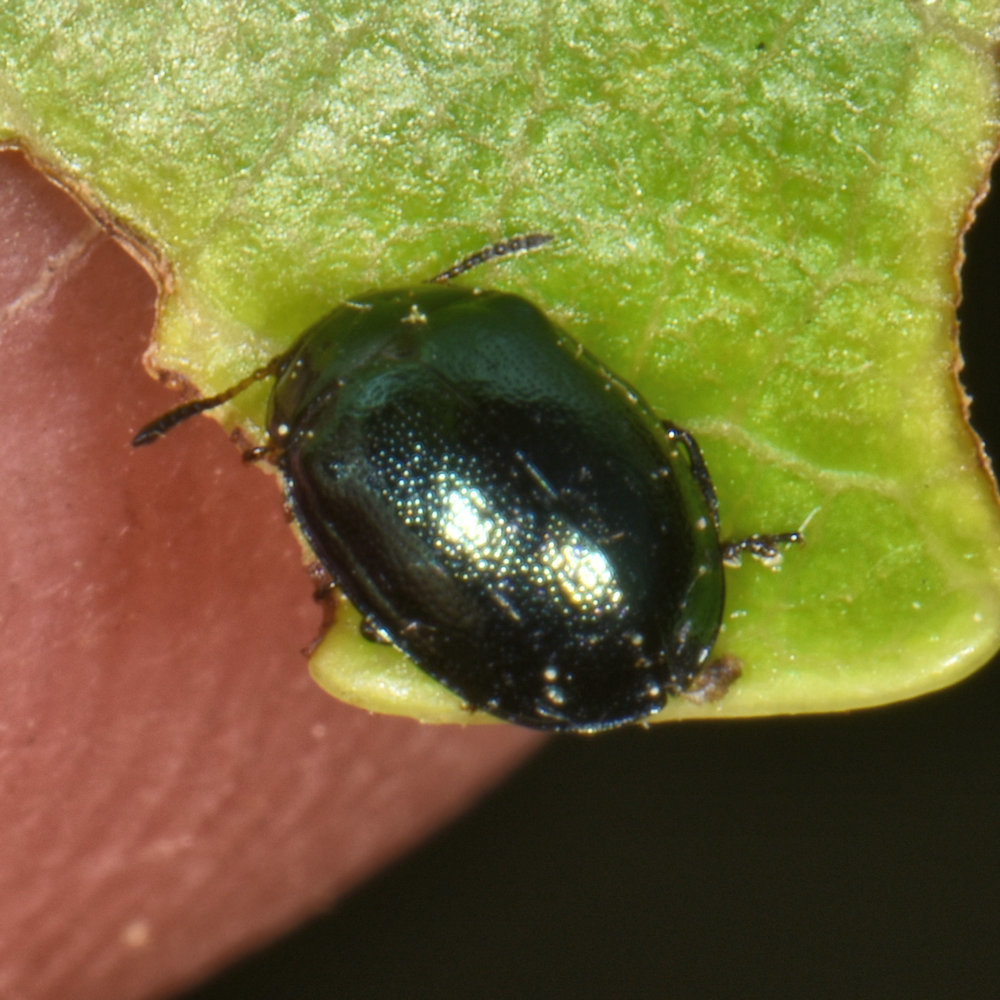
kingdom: Animalia
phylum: Arthropoda
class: Insecta
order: Coleoptera
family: Chrysomelidae
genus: Plagiodera
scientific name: Plagiodera versicolora
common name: Imported willow leaf beetle
